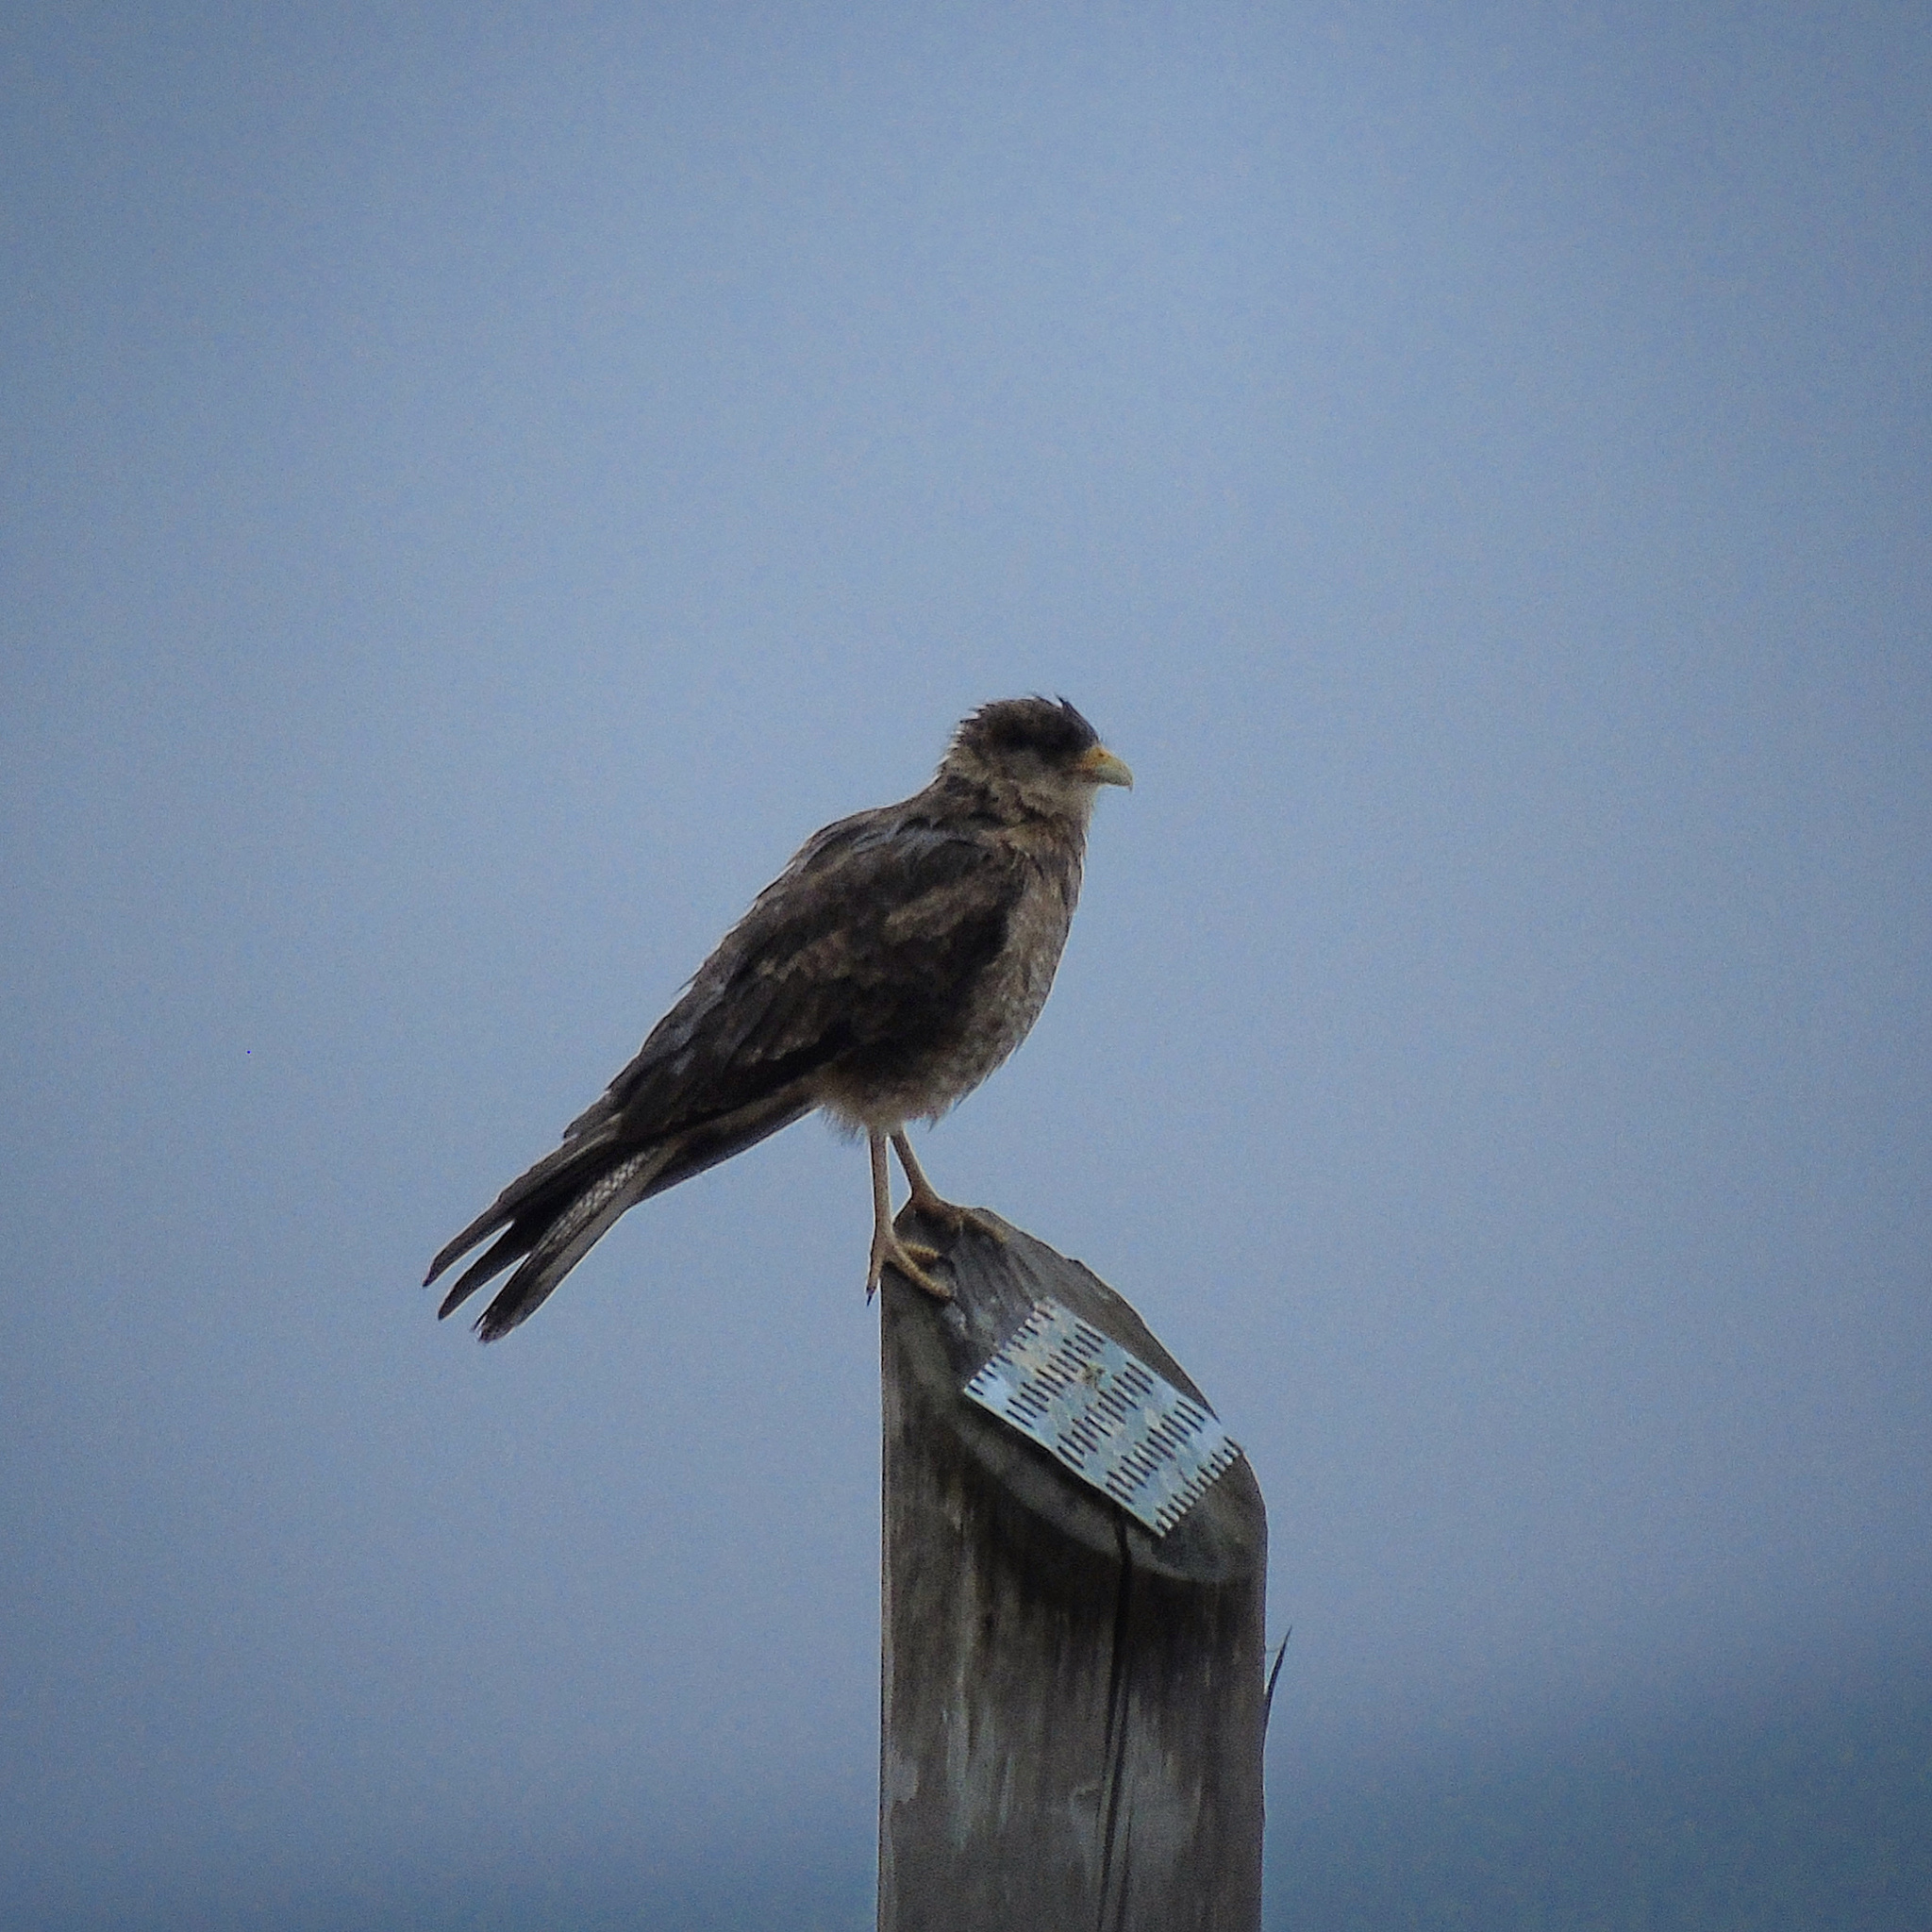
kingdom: Animalia
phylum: Chordata
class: Aves
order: Falconiformes
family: Falconidae
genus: Daptrius
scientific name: Daptrius
